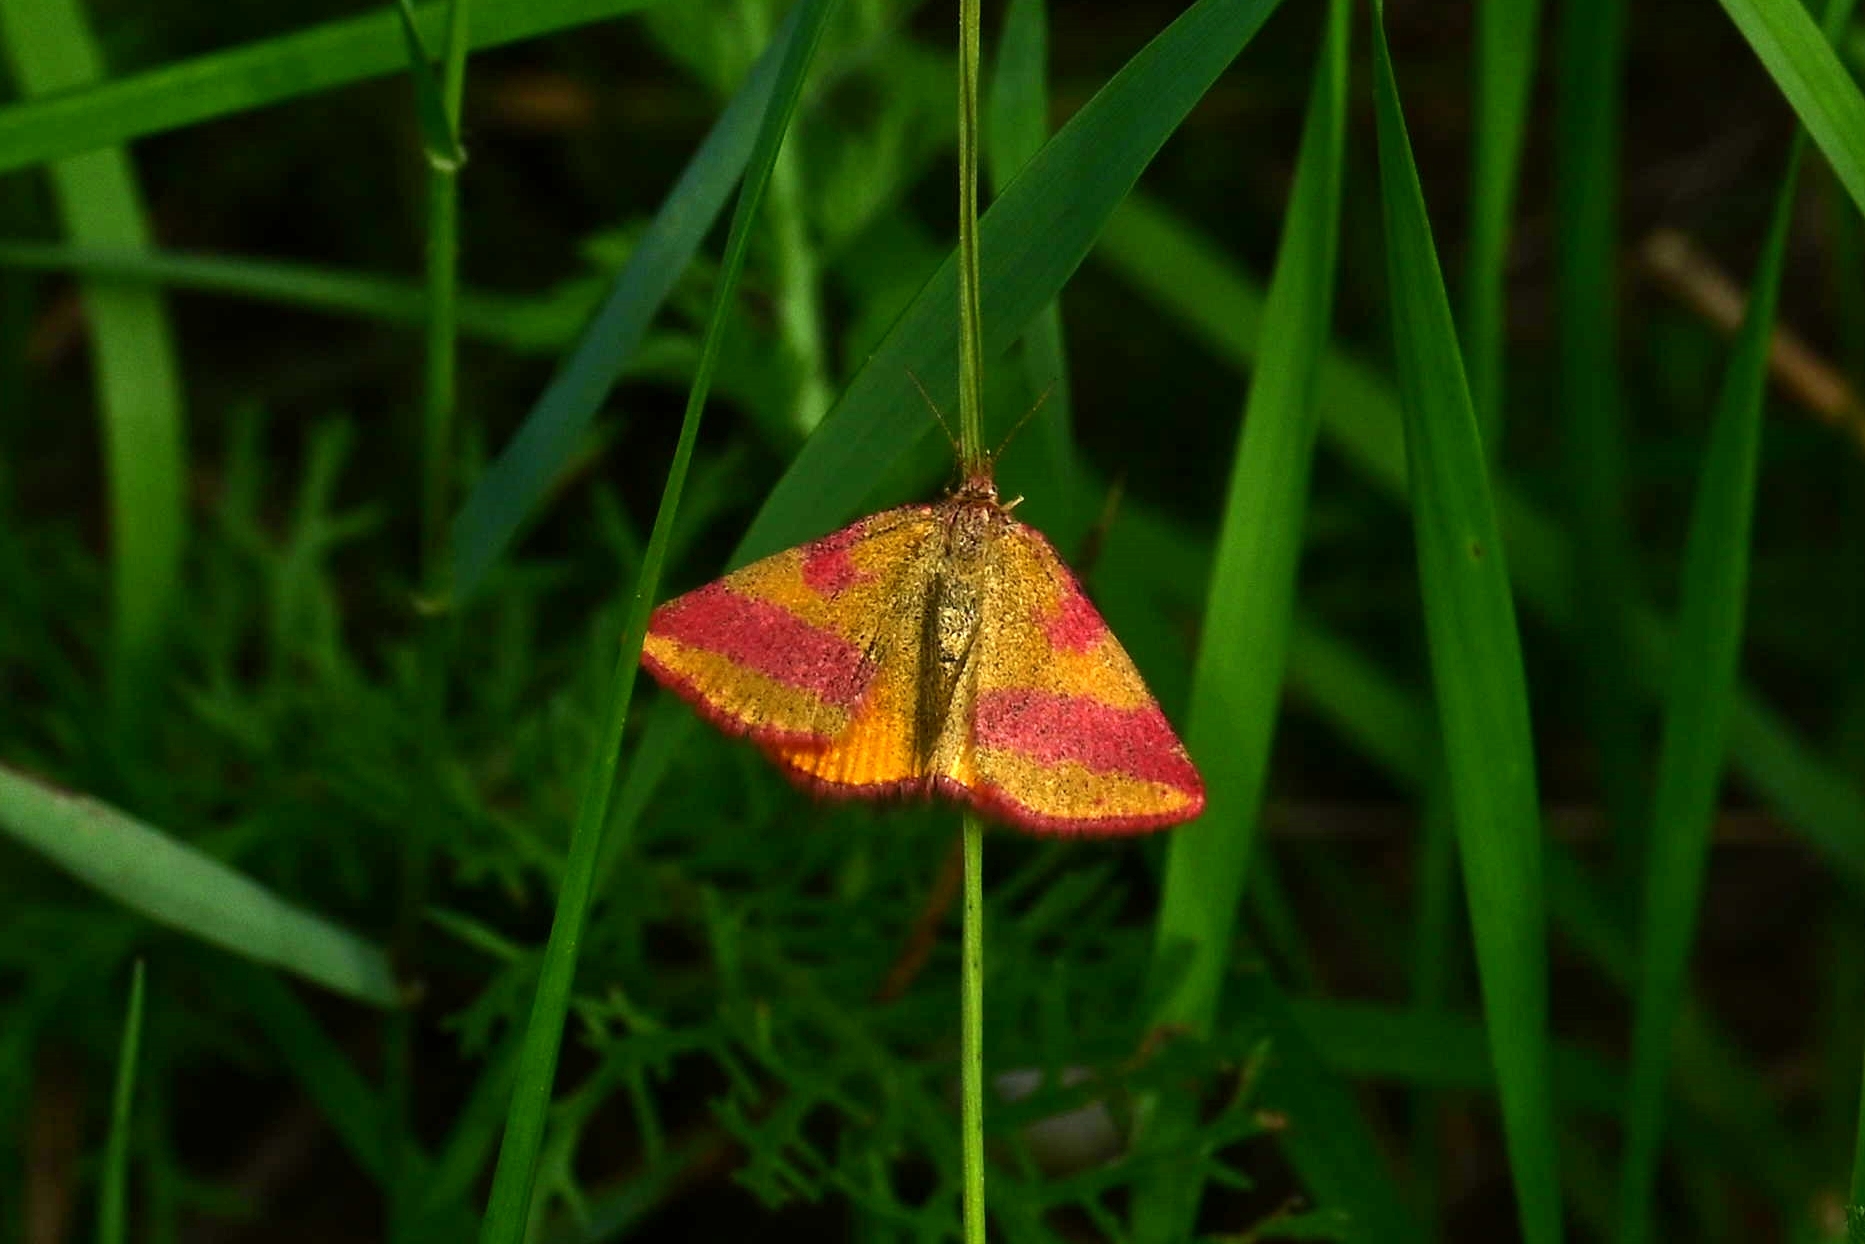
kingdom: Animalia
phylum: Arthropoda
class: Insecta
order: Lepidoptera
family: Geometridae
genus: Lythria
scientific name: Lythria cruentaria
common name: Purple-barred yellow
